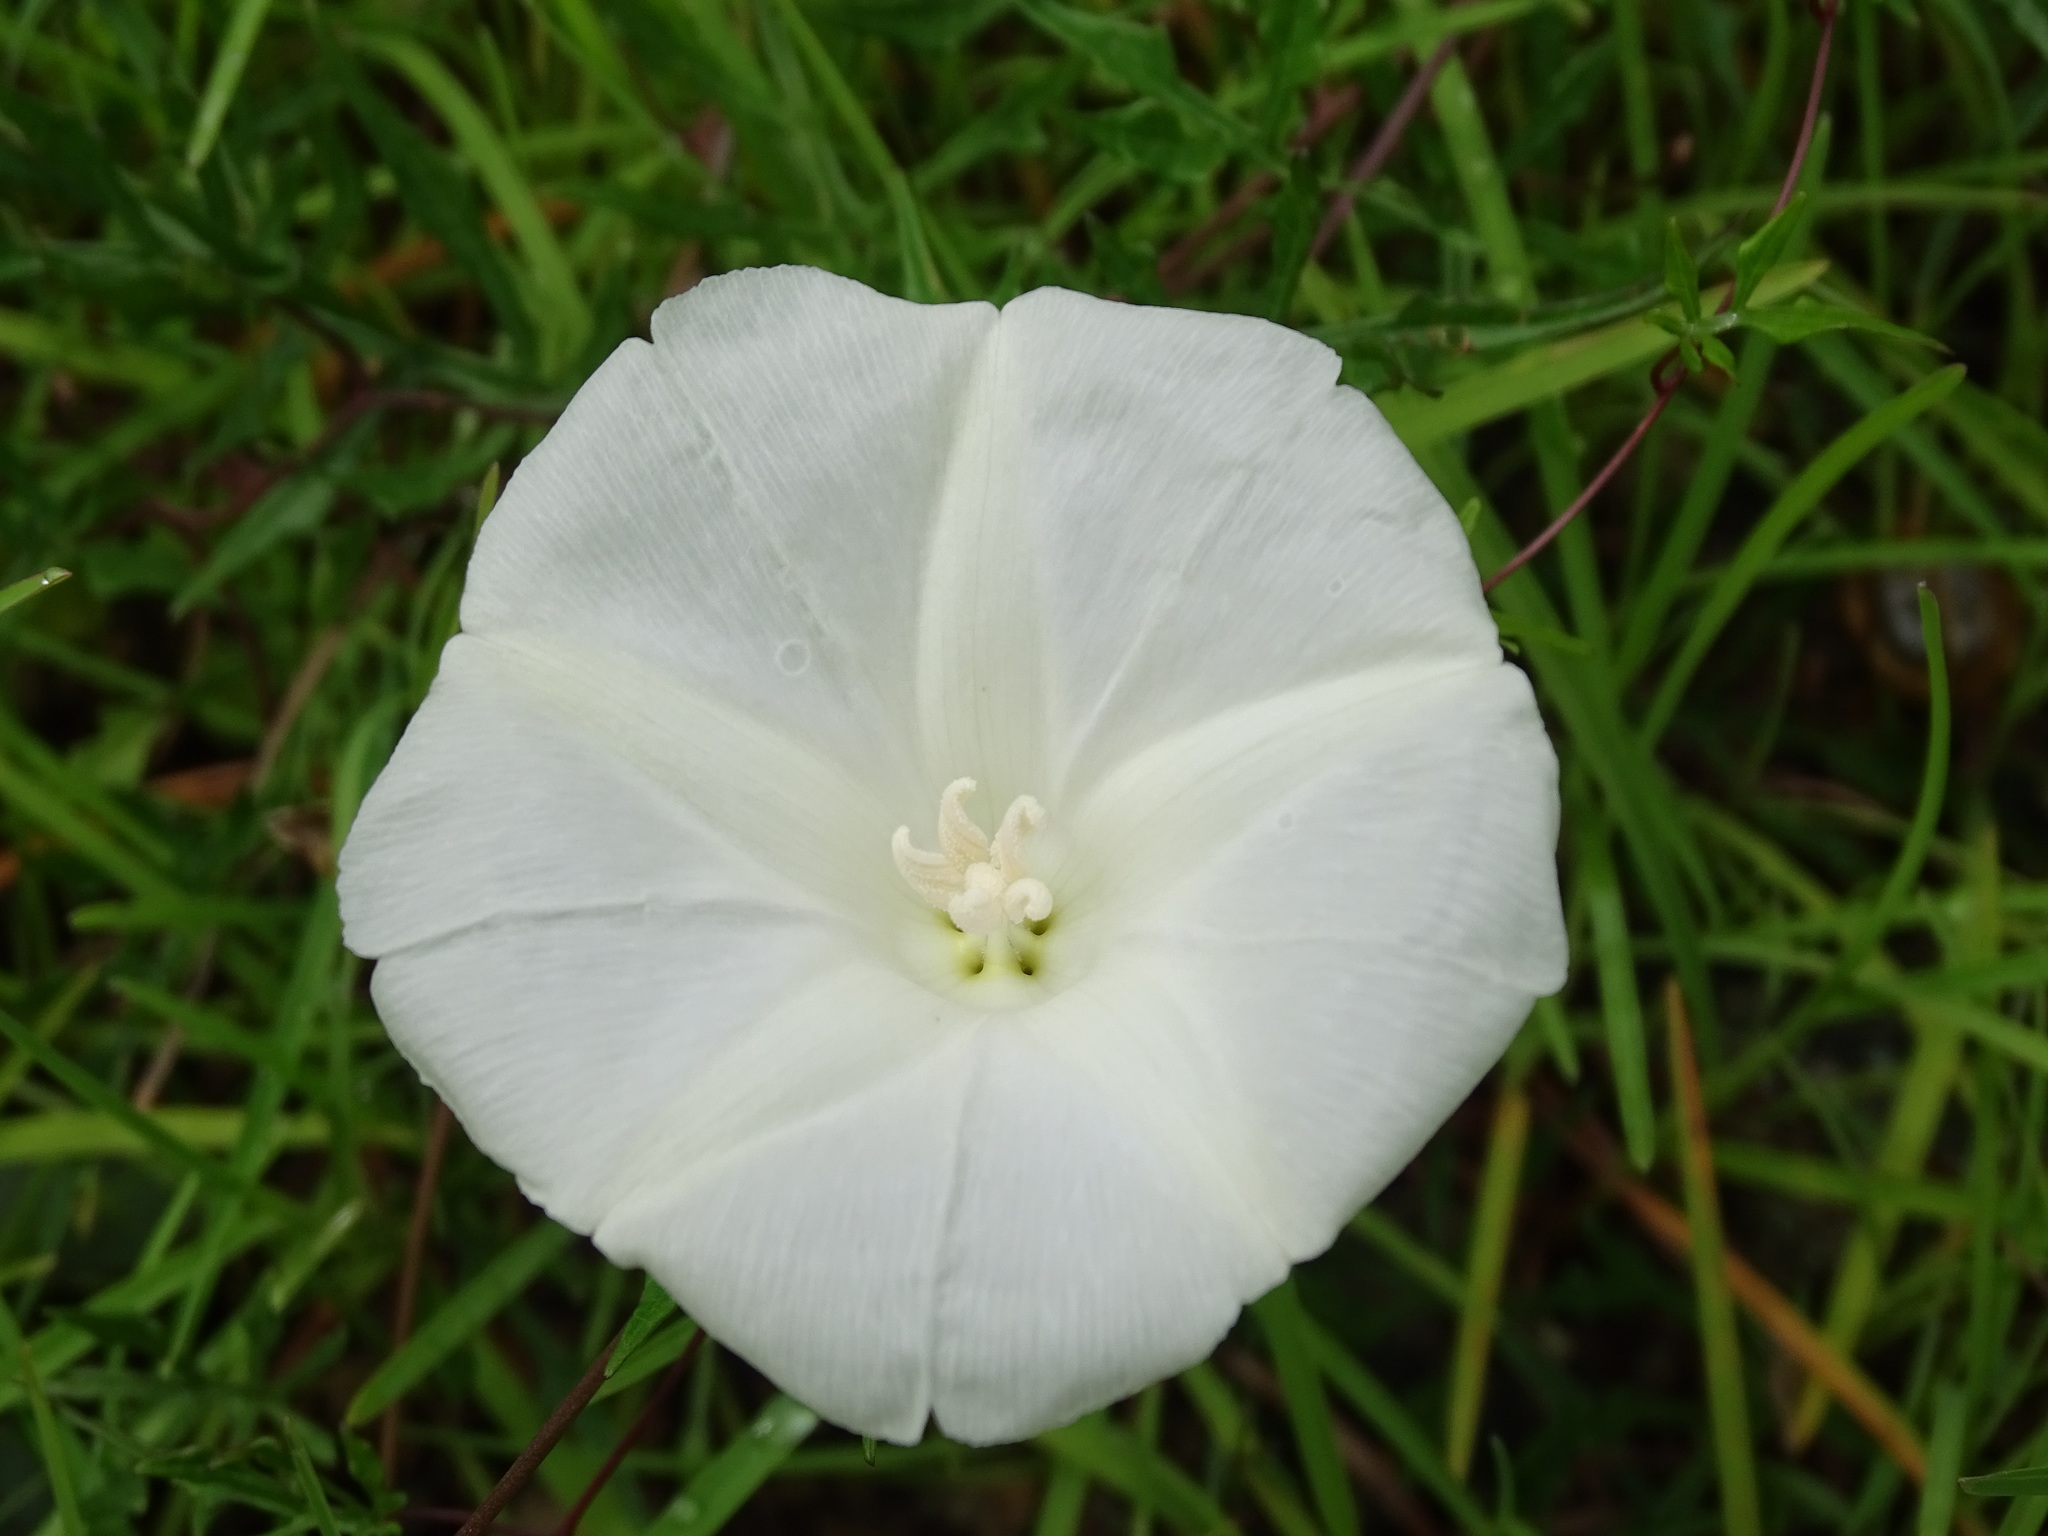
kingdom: Plantae
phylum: Tracheophyta
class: Magnoliopsida
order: Solanales
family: Convolvulaceae
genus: Operculina
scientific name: Operculina pinnatifida
